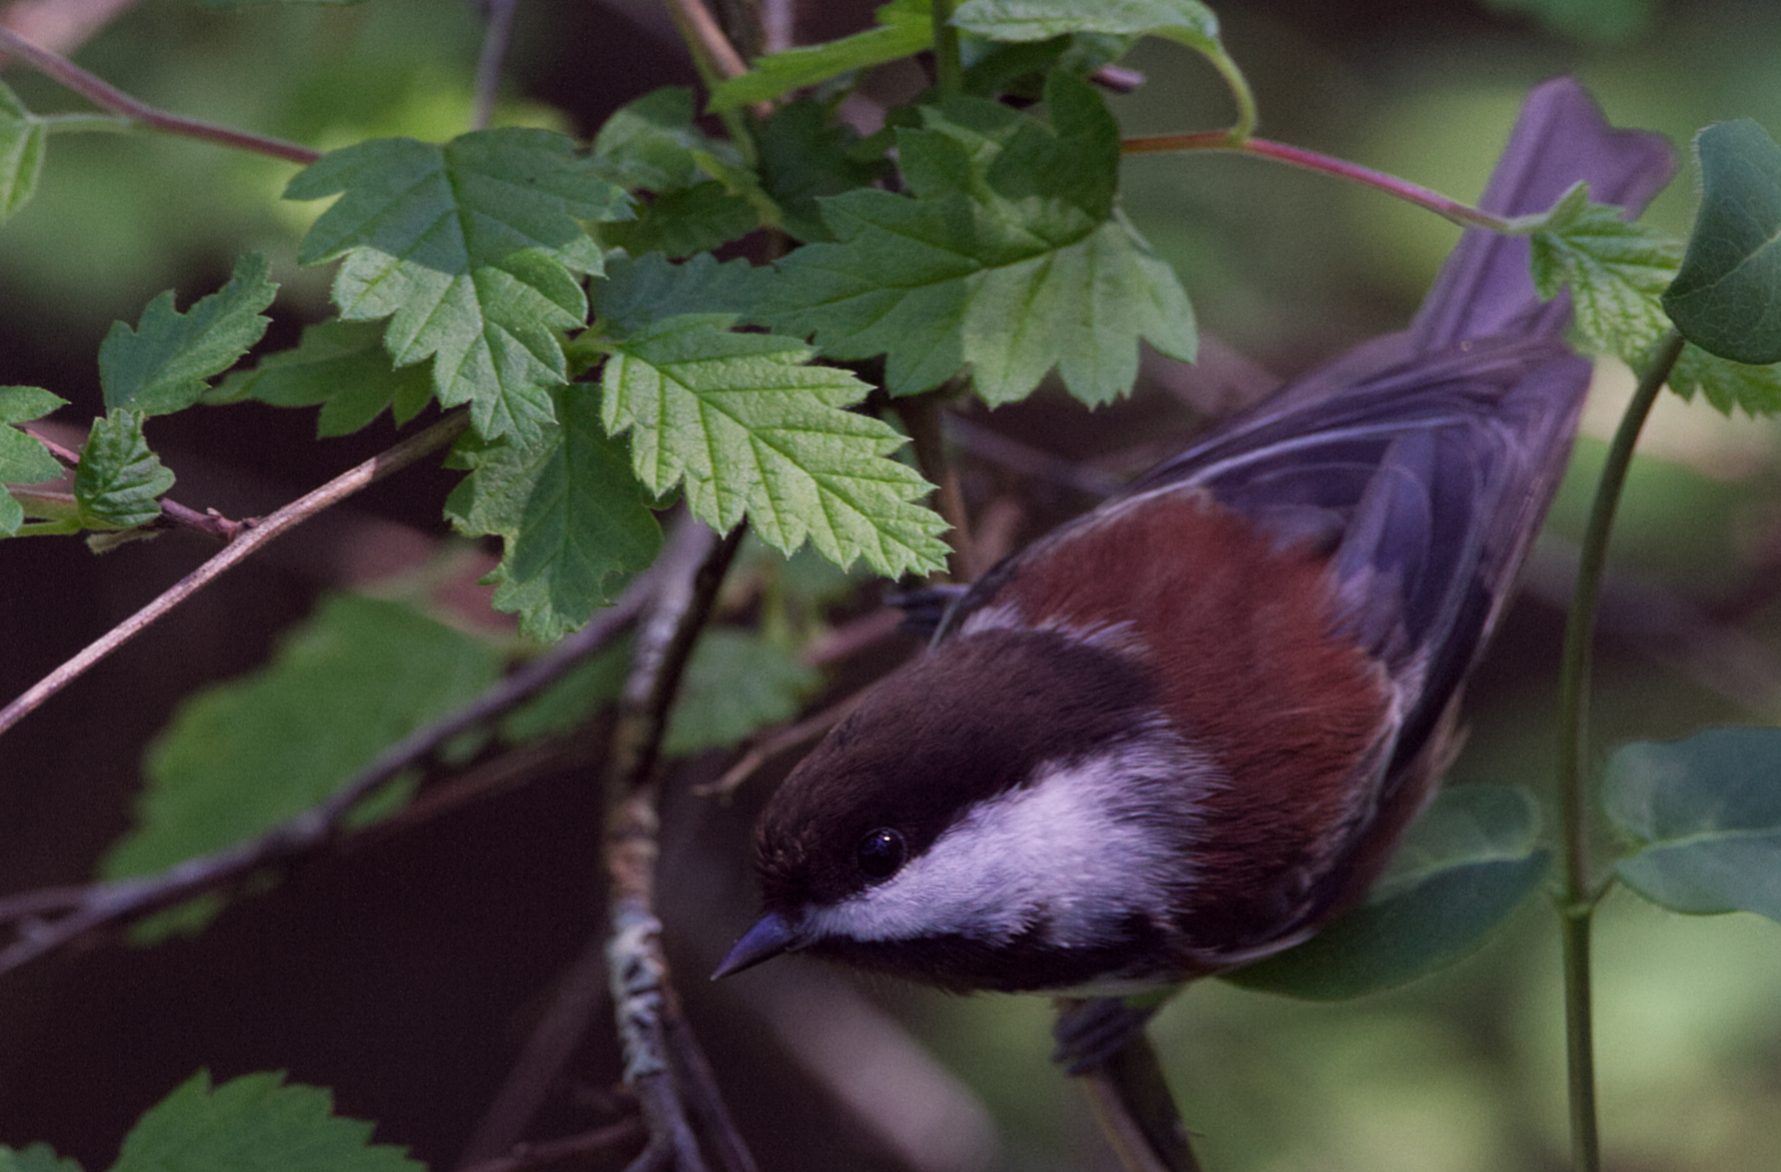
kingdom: Animalia
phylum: Chordata
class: Aves
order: Passeriformes
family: Paridae
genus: Poecile
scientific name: Poecile rufescens
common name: Chestnut-backed chickadee
